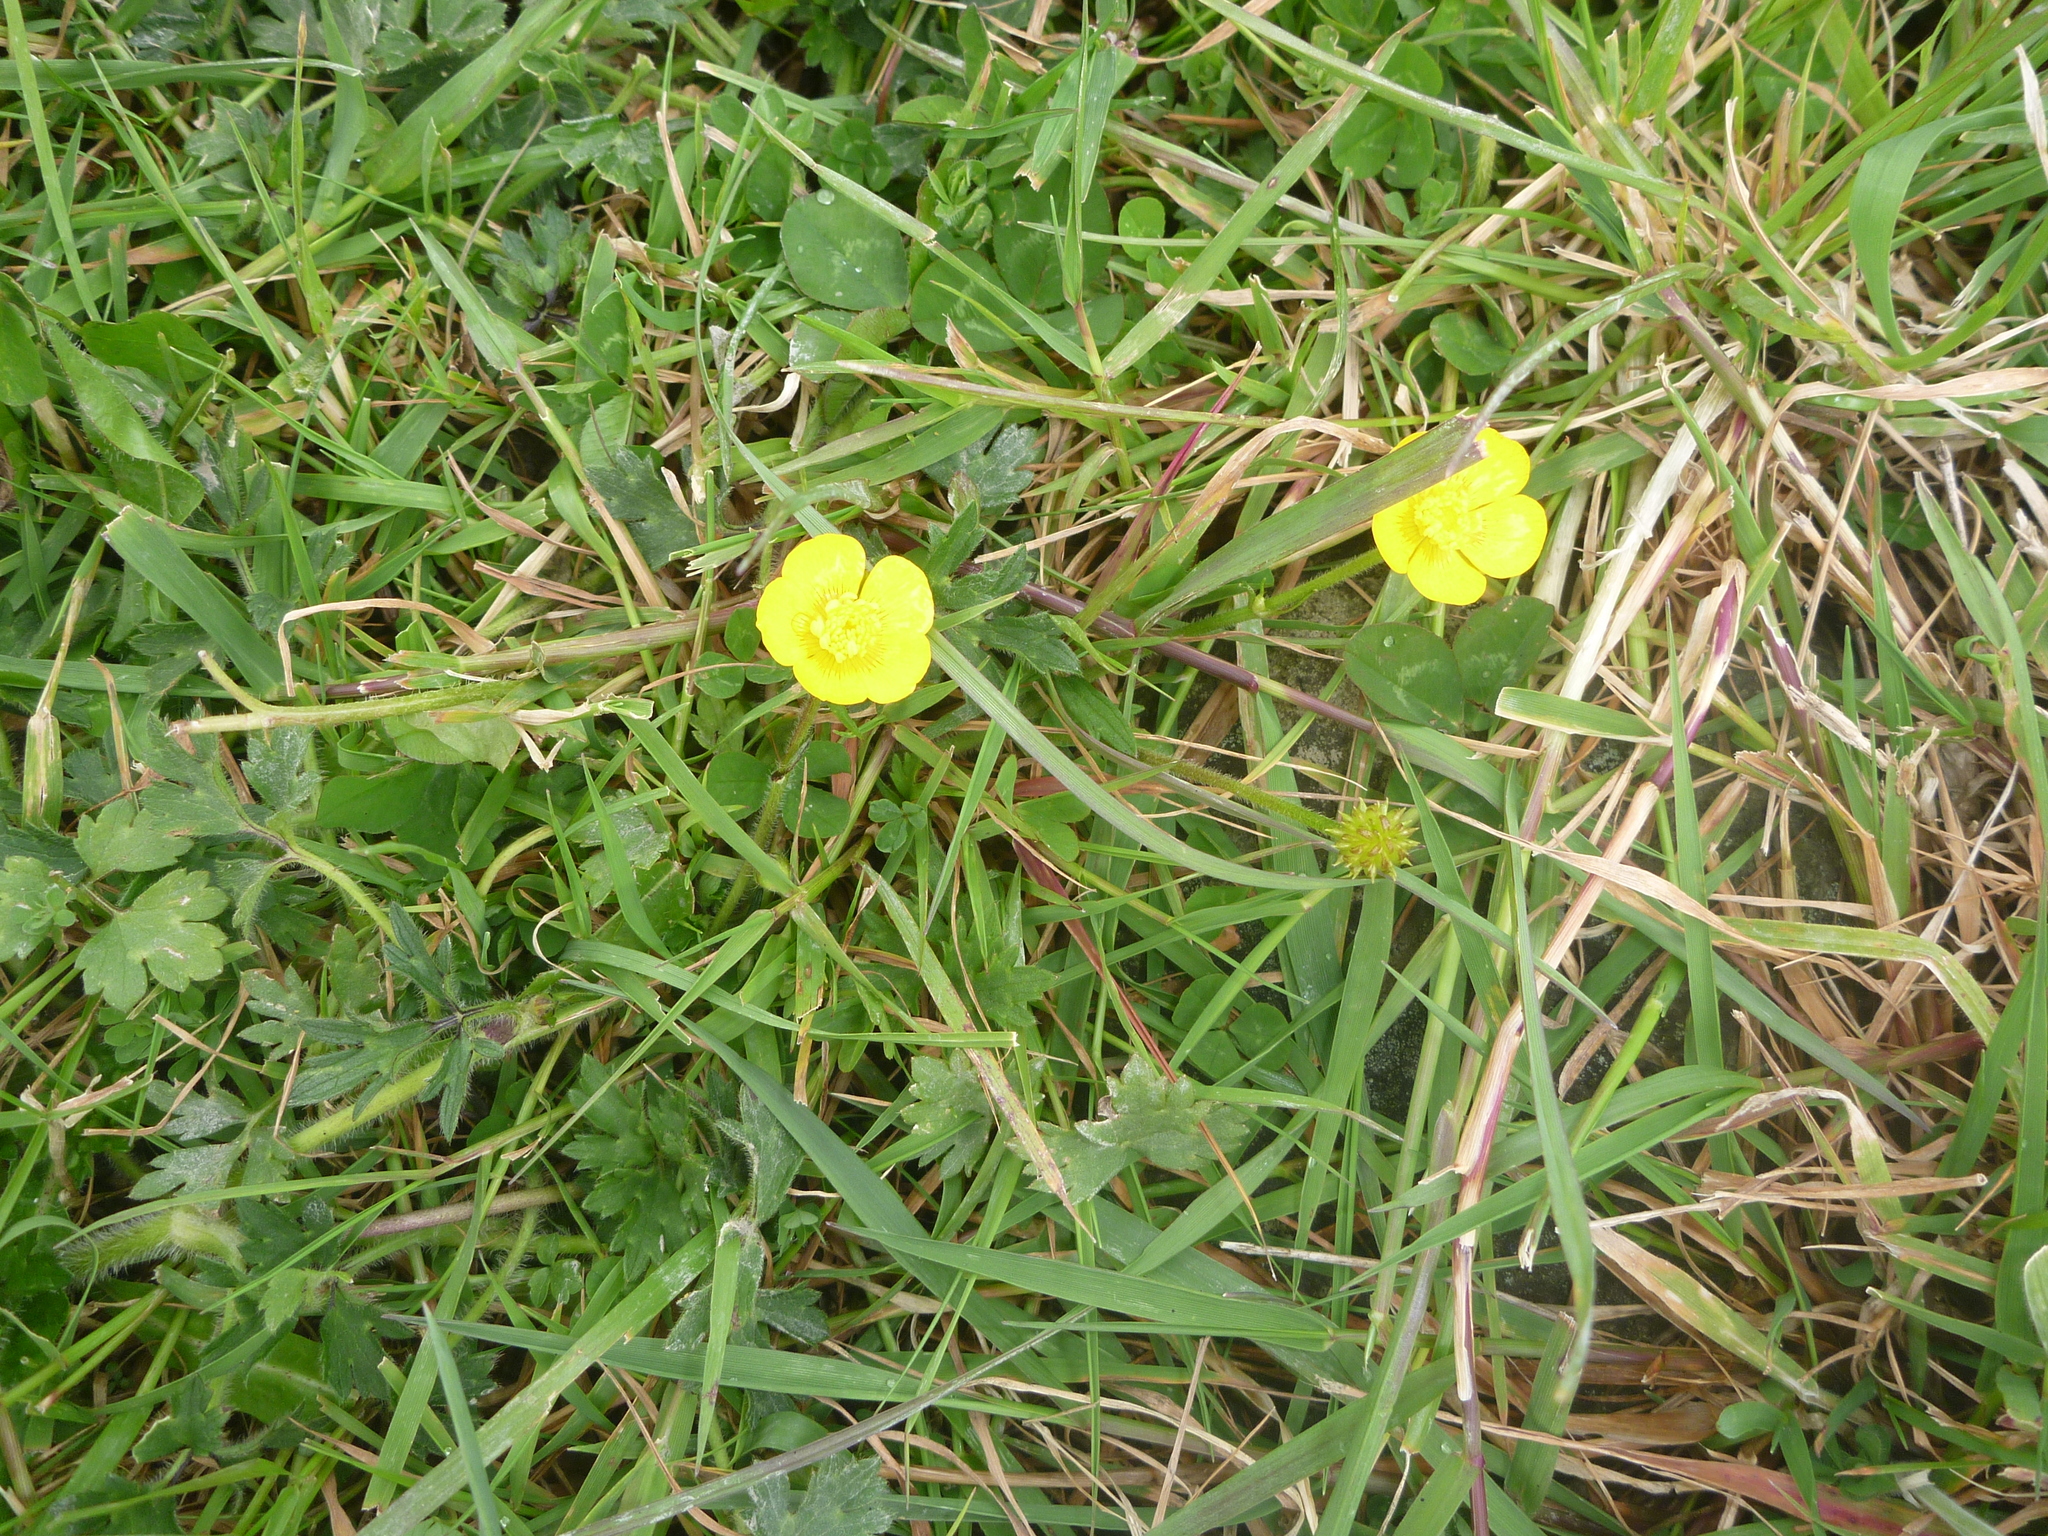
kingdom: Plantae
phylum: Tracheophyta
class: Magnoliopsida
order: Ranunculales
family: Ranunculaceae
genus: Ranunculus
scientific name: Ranunculus repens
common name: Creeping buttercup
